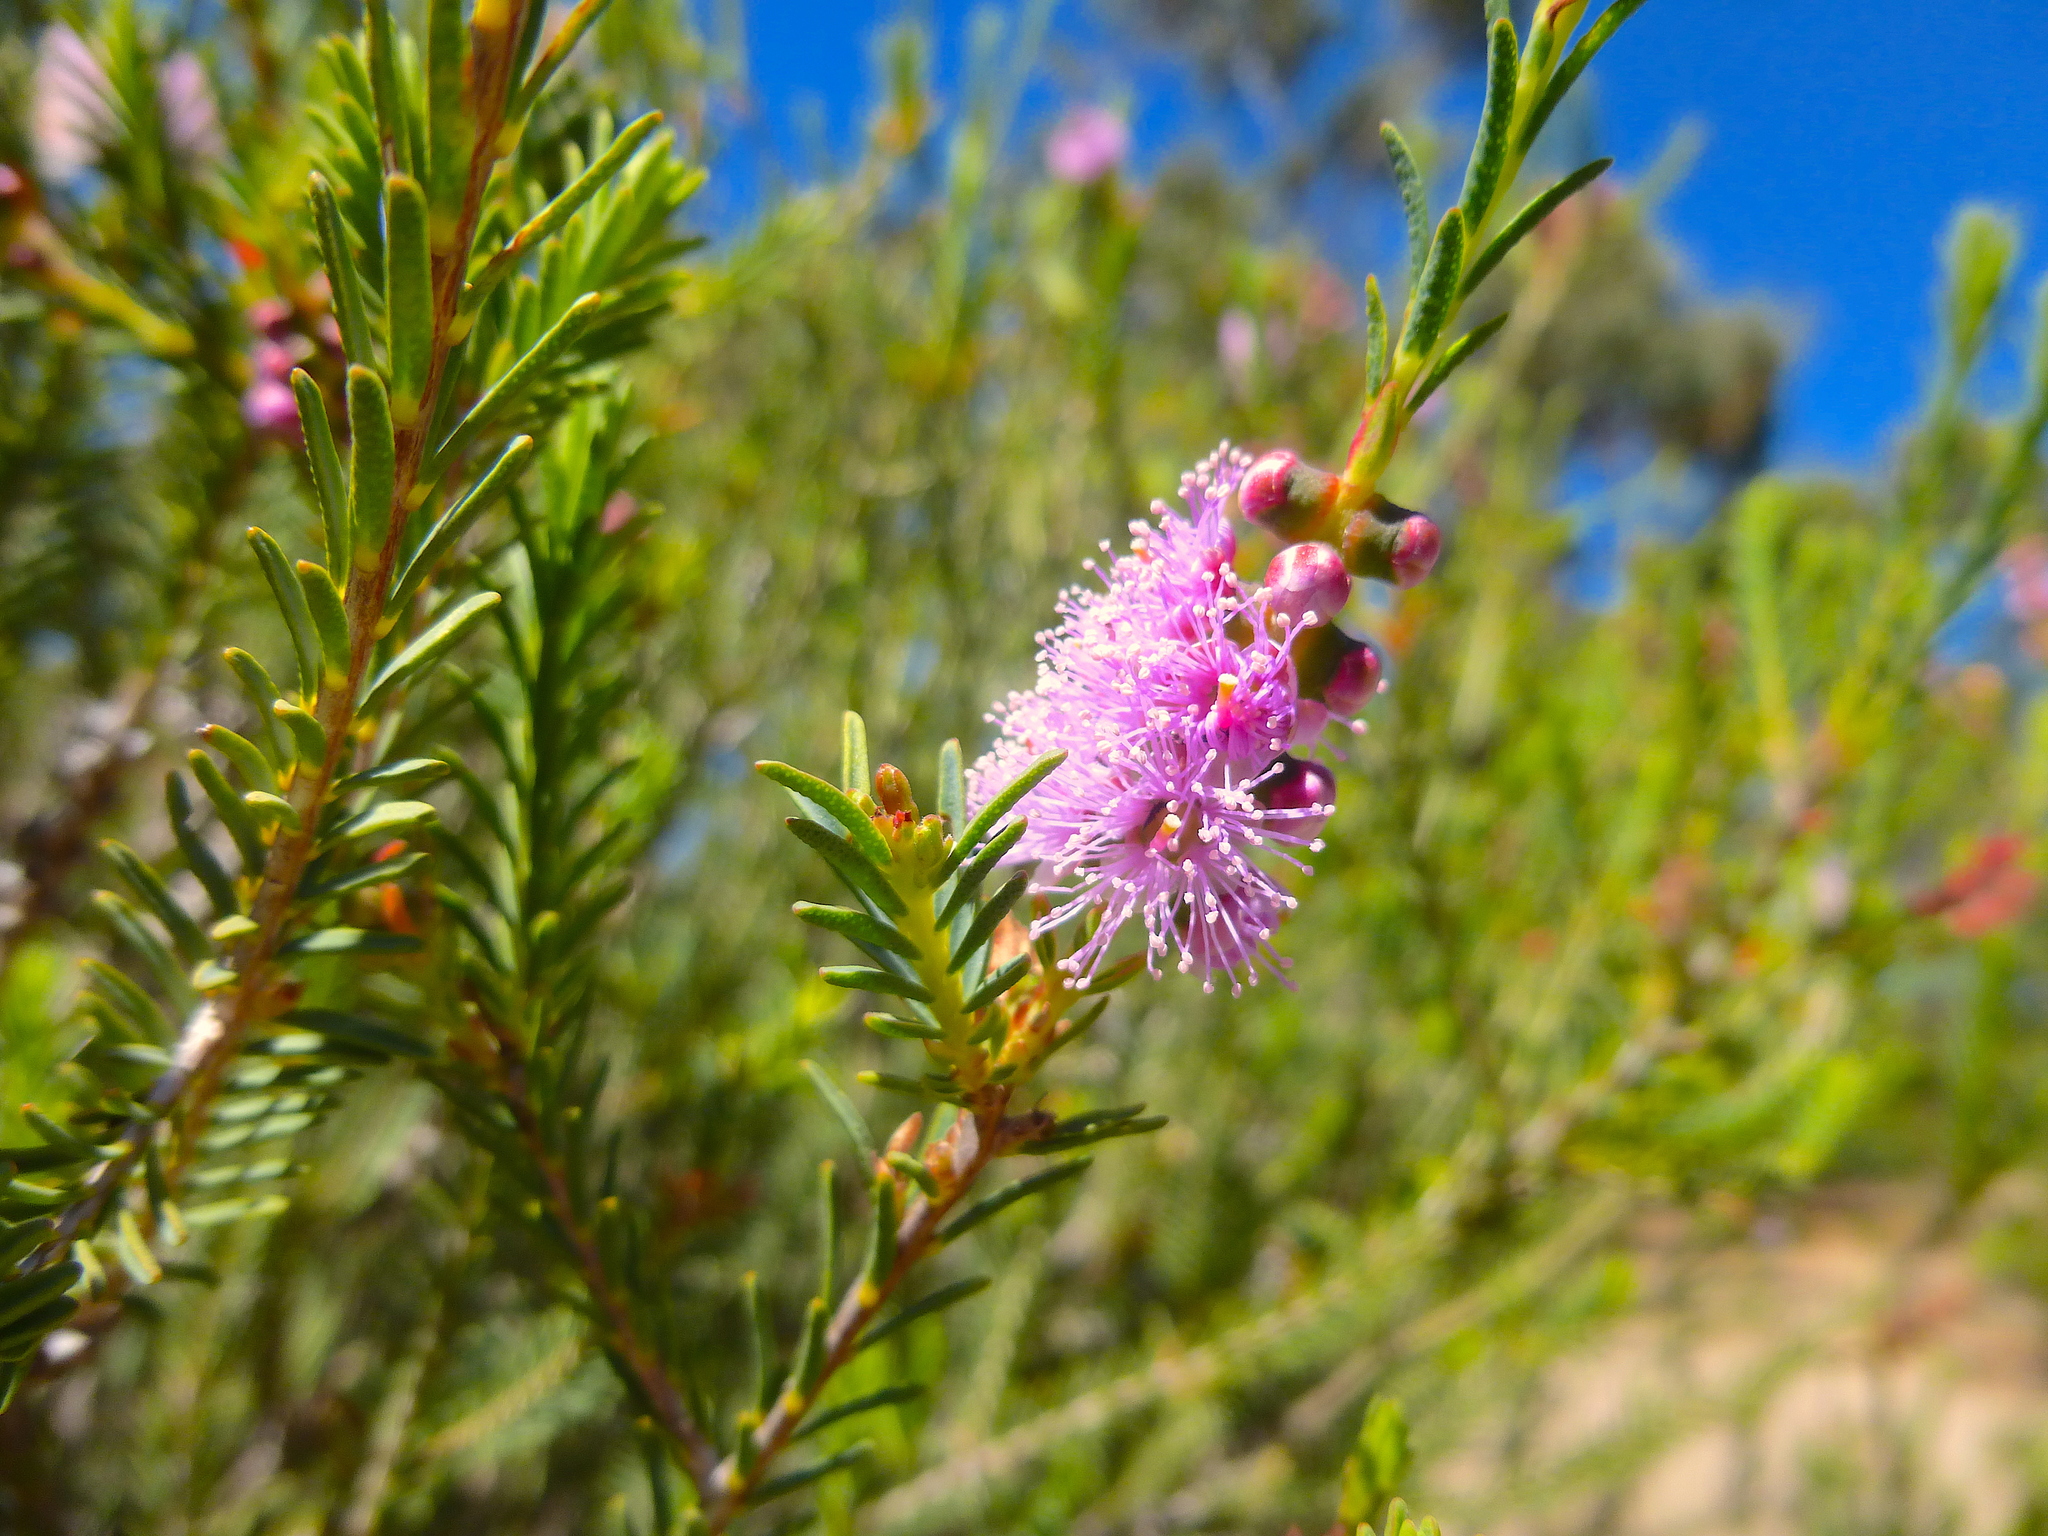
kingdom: Plantae
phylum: Tracheophyta
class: Magnoliopsida
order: Myrtales
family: Myrtaceae
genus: Melaleuca
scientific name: Melaleuca decussata
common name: Cross-leaf honey myrtle
